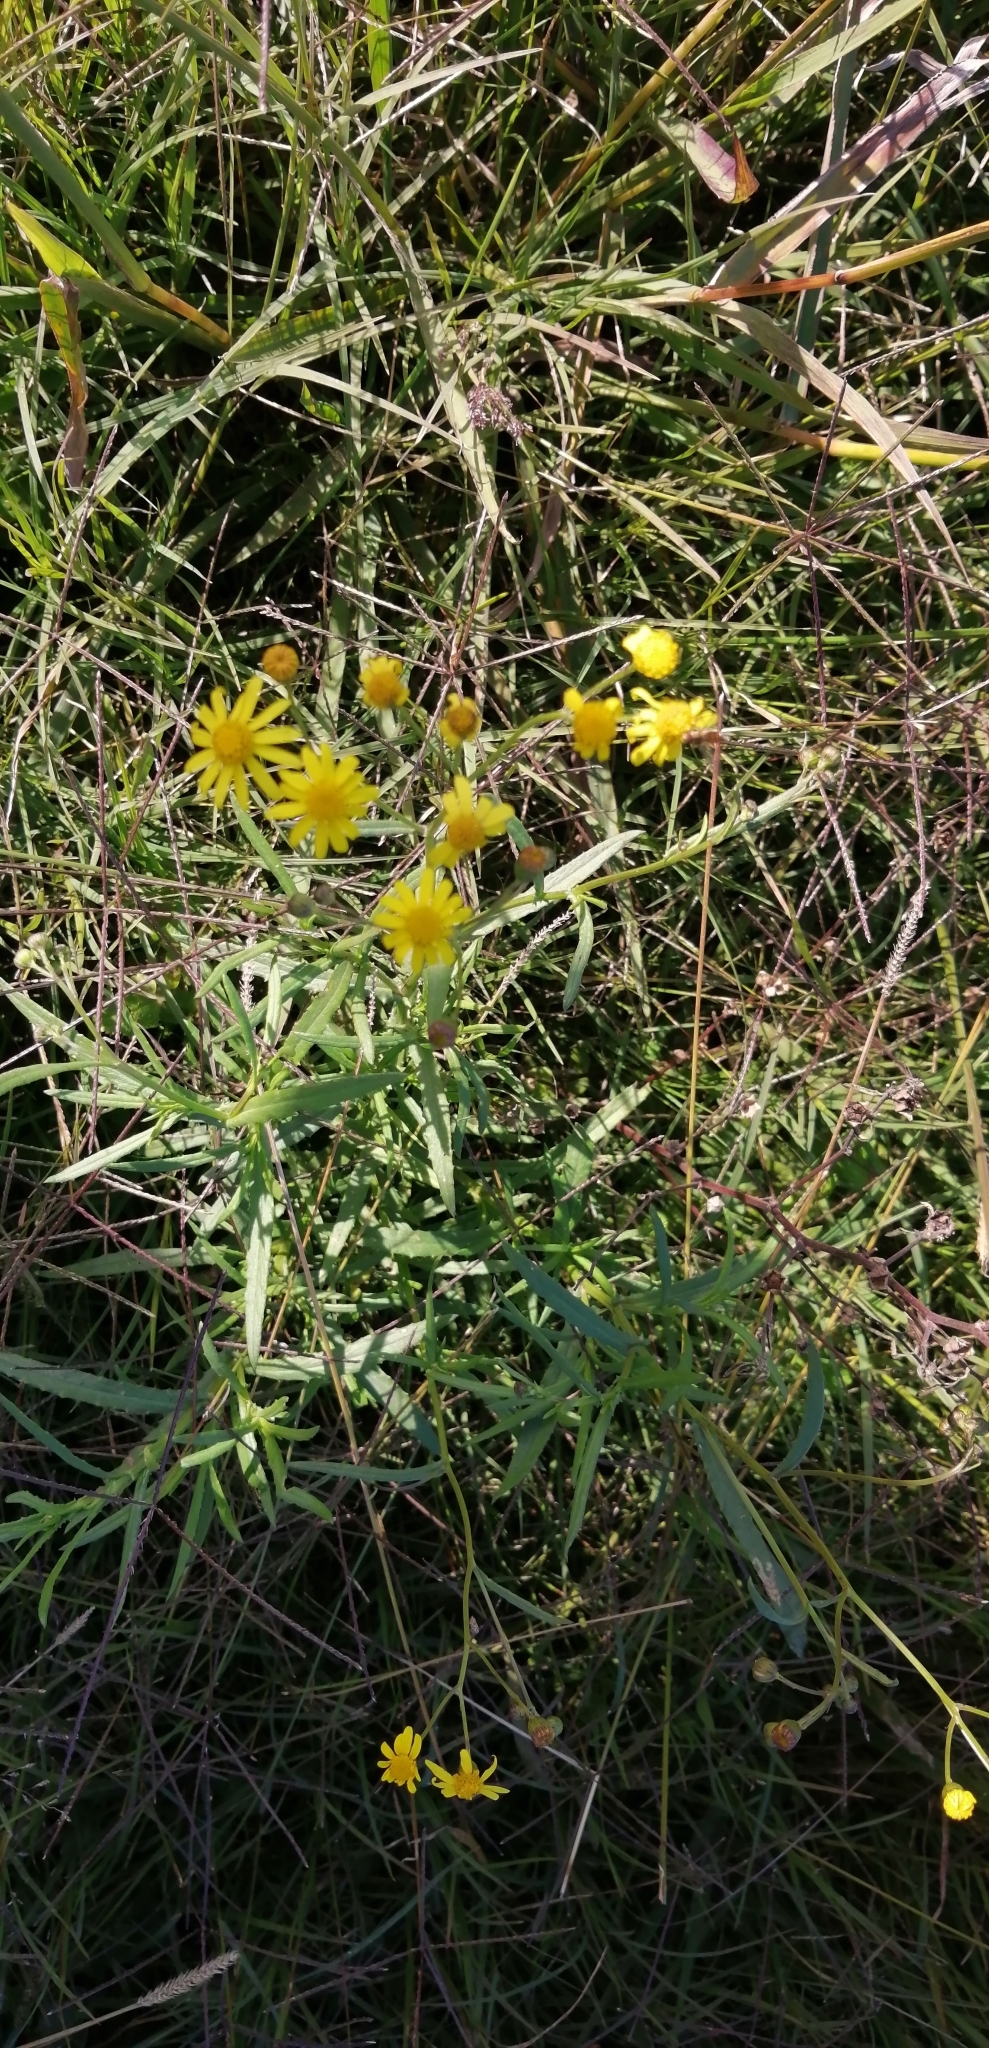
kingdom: Plantae
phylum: Tracheophyta
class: Magnoliopsida
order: Asterales
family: Asteraceae
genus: Senecio
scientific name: Senecio madagascariensis
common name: Madagascar ragwort
